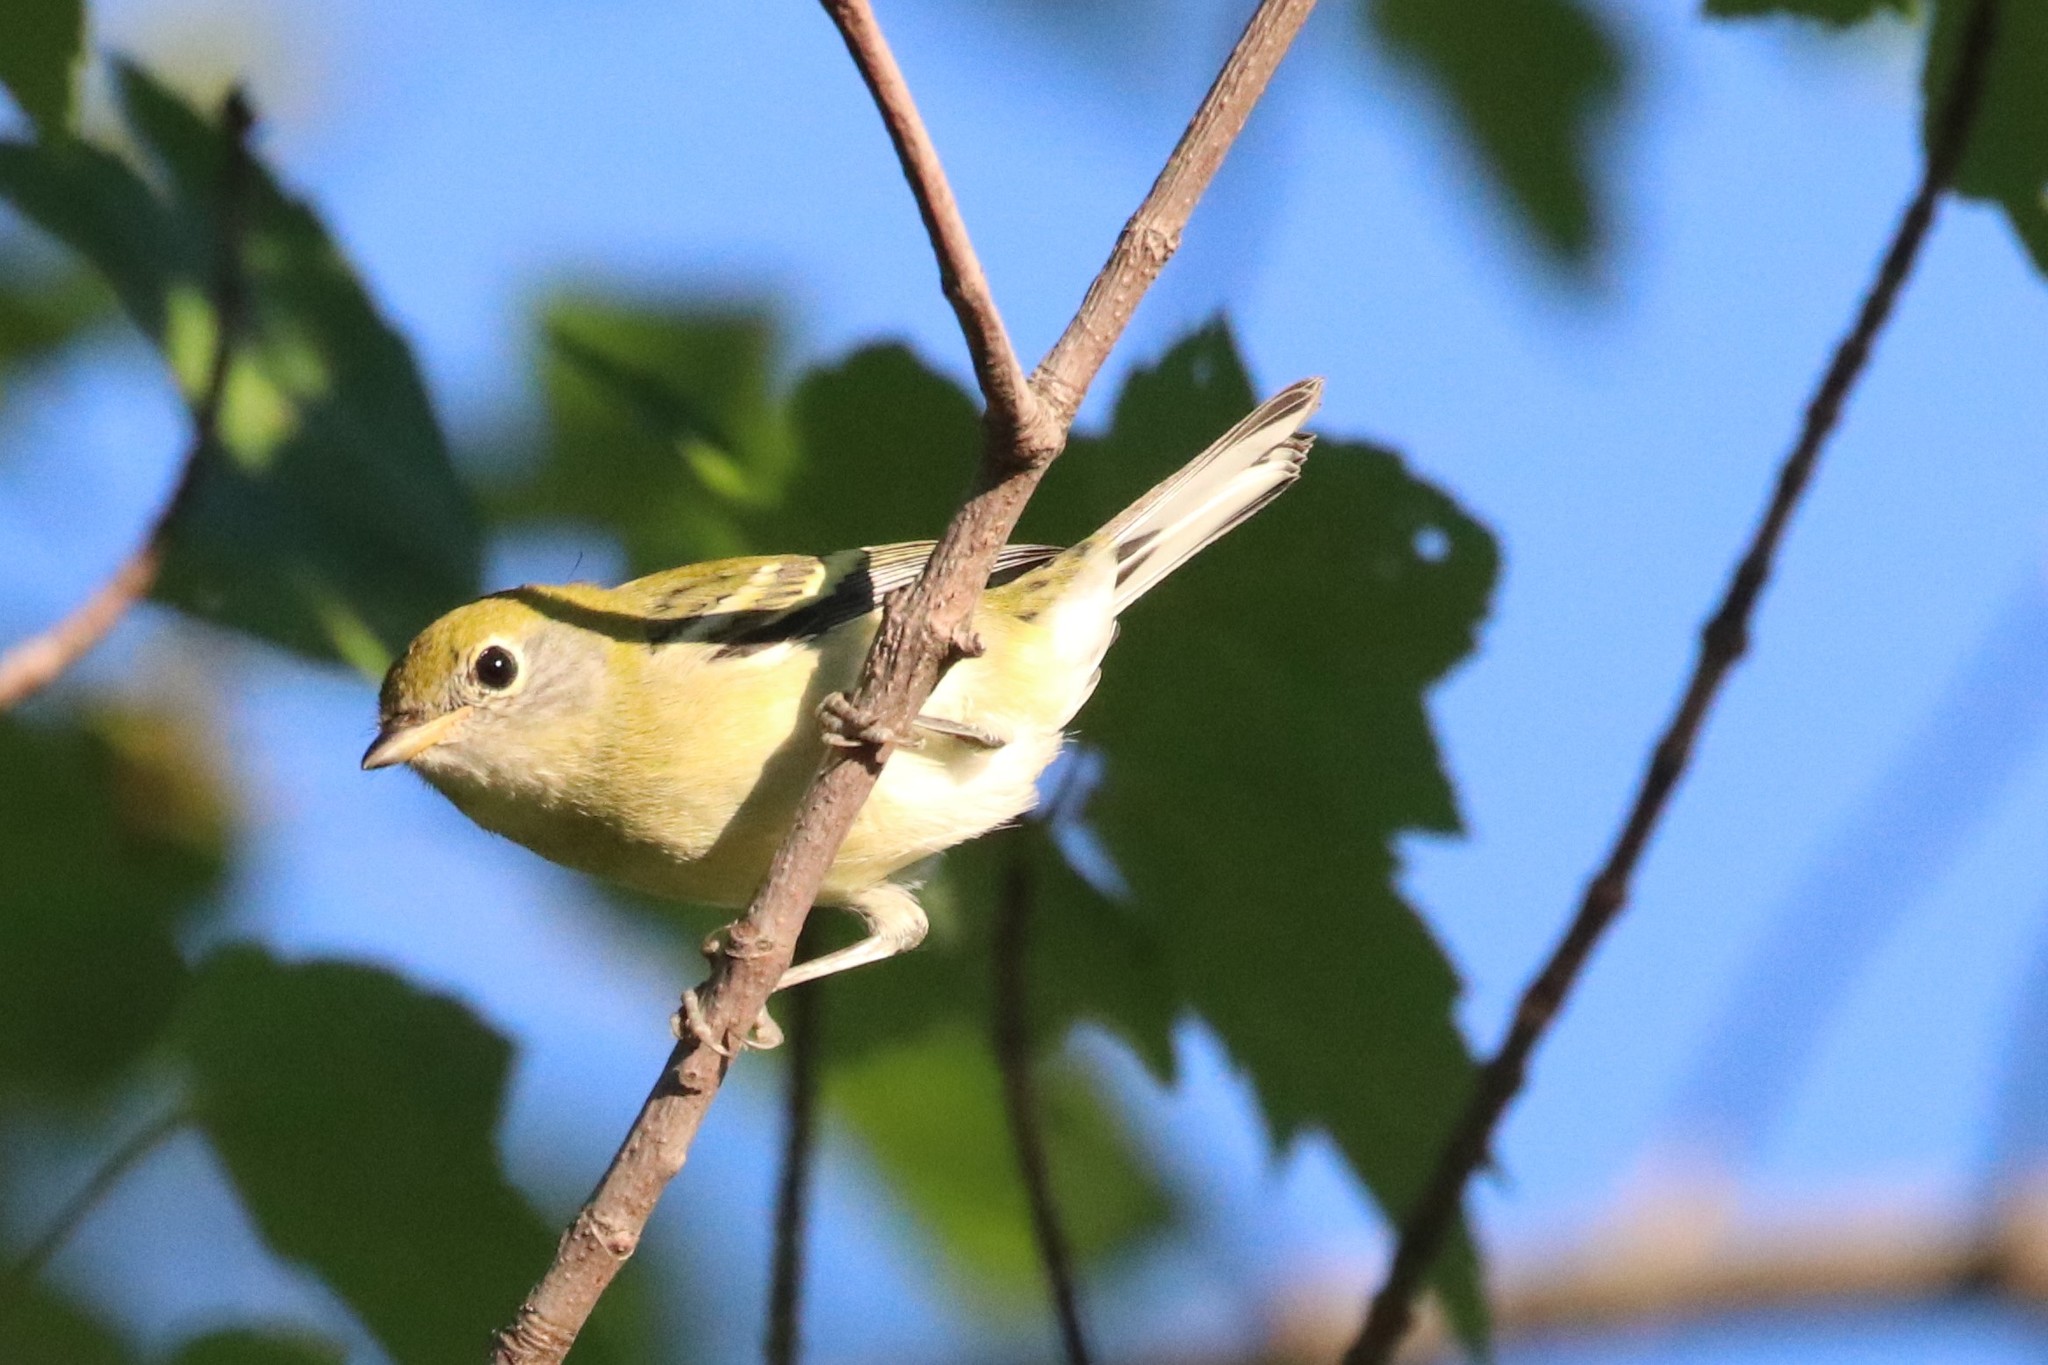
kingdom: Animalia
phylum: Chordata
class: Aves
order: Passeriformes
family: Parulidae
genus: Setophaga
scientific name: Setophaga pensylvanica
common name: Chestnut-sided warbler
